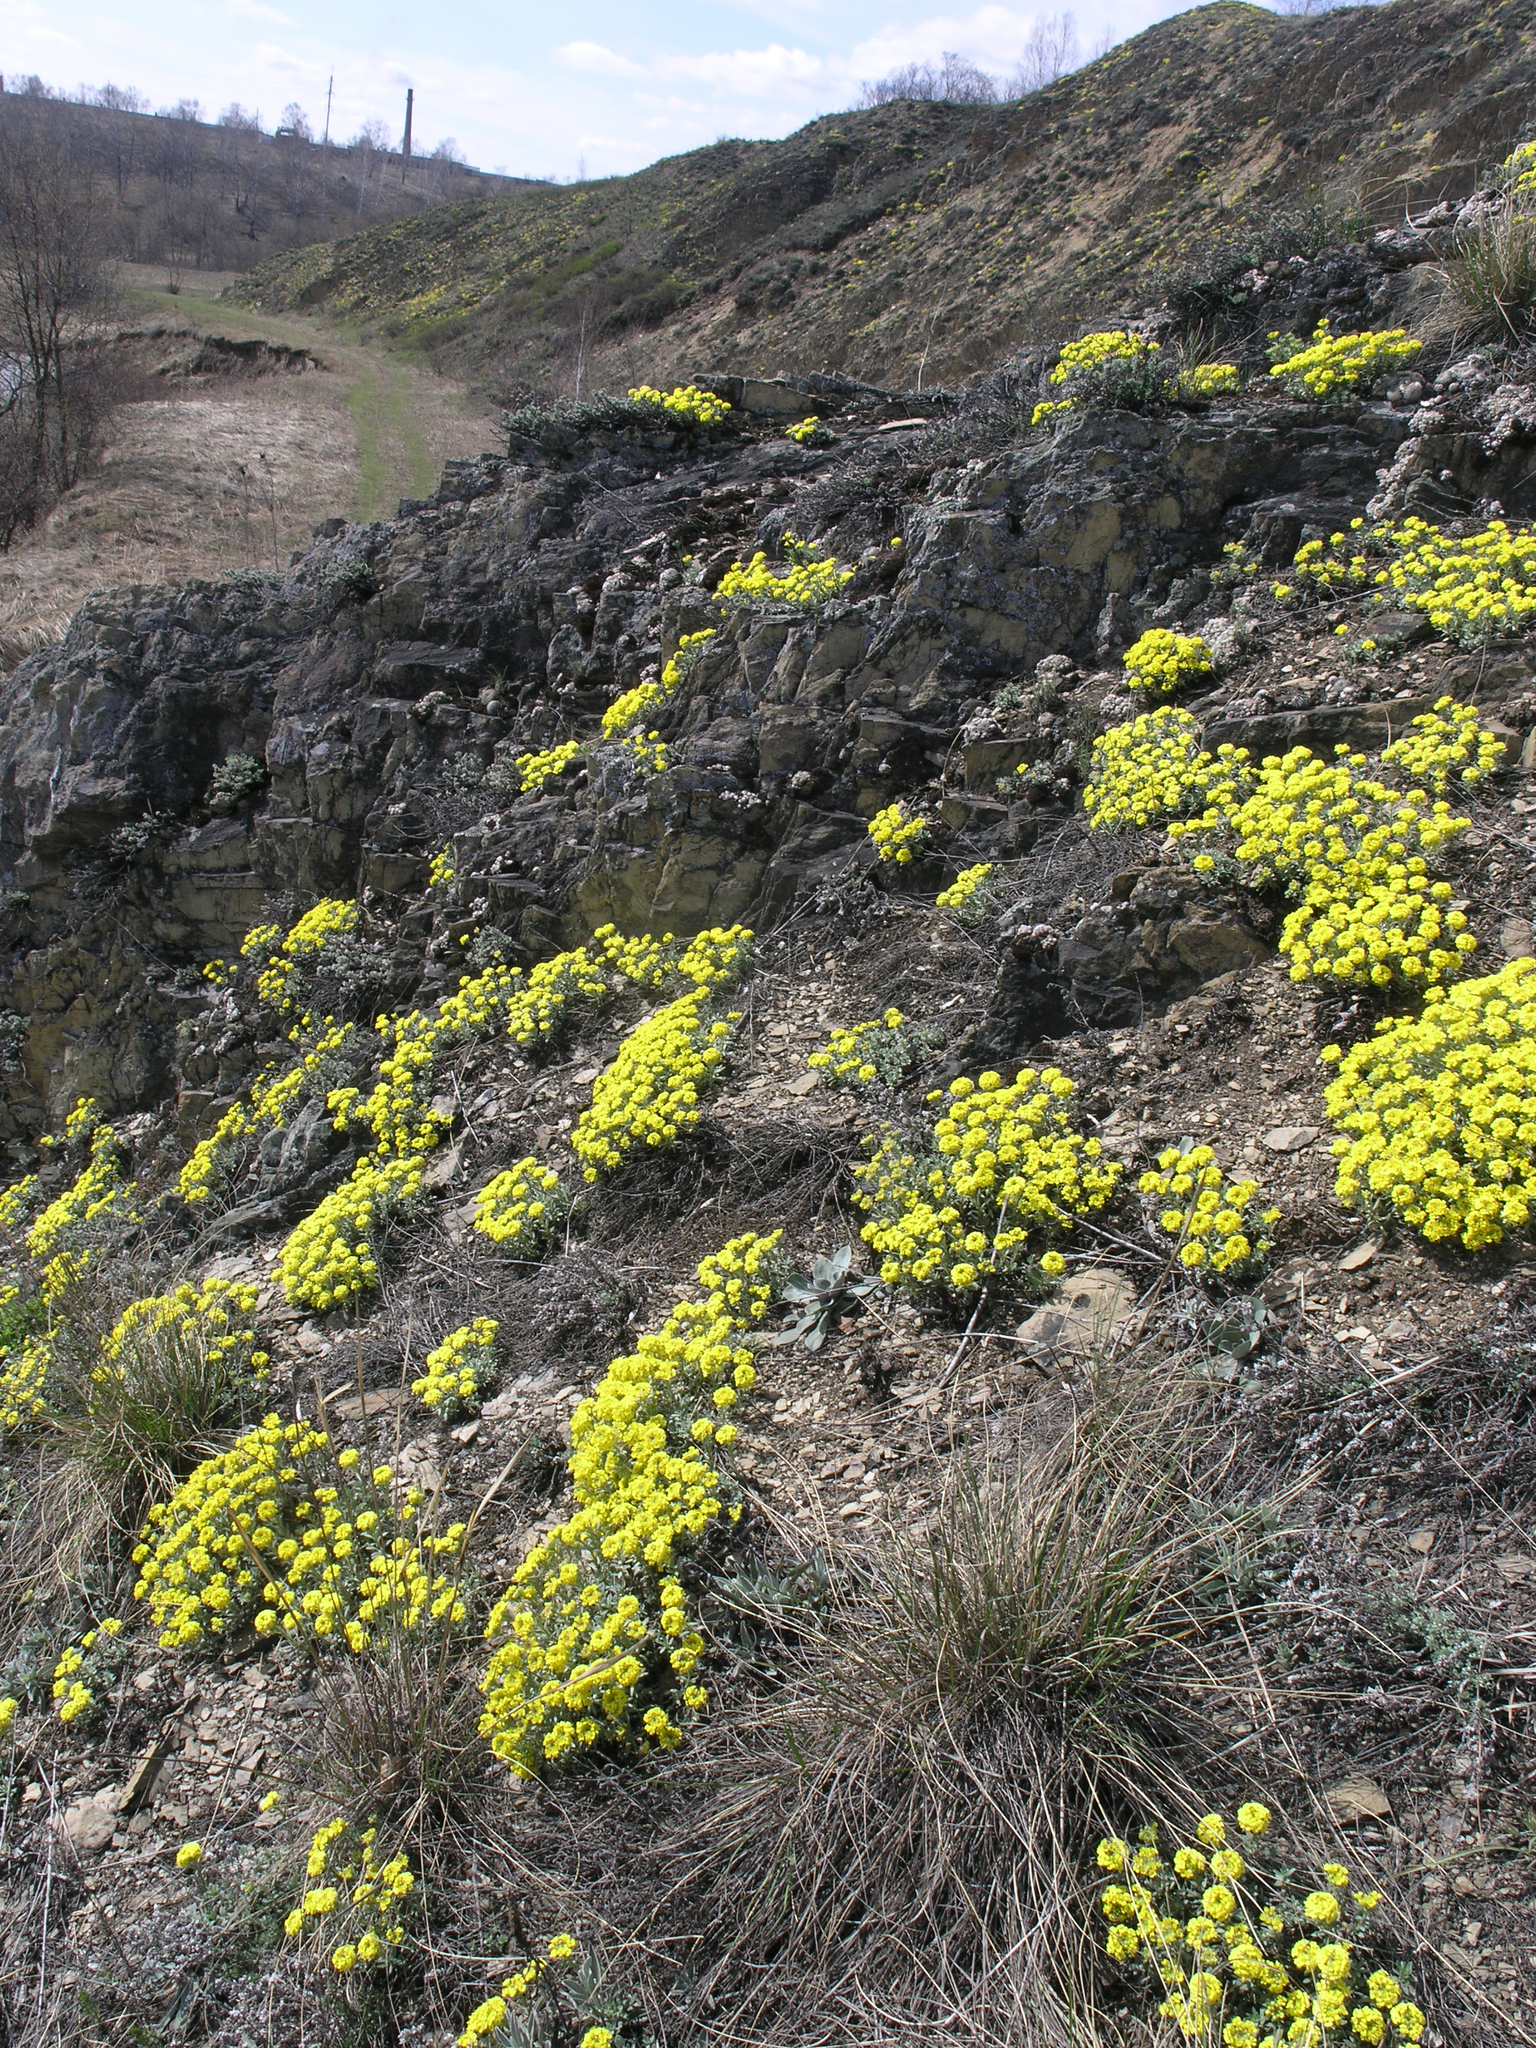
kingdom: Plantae
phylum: Tracheophyta
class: Magnoliopsida
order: Brassicales
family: Brassicaceae
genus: Alyssum
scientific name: Alyssum lenense
